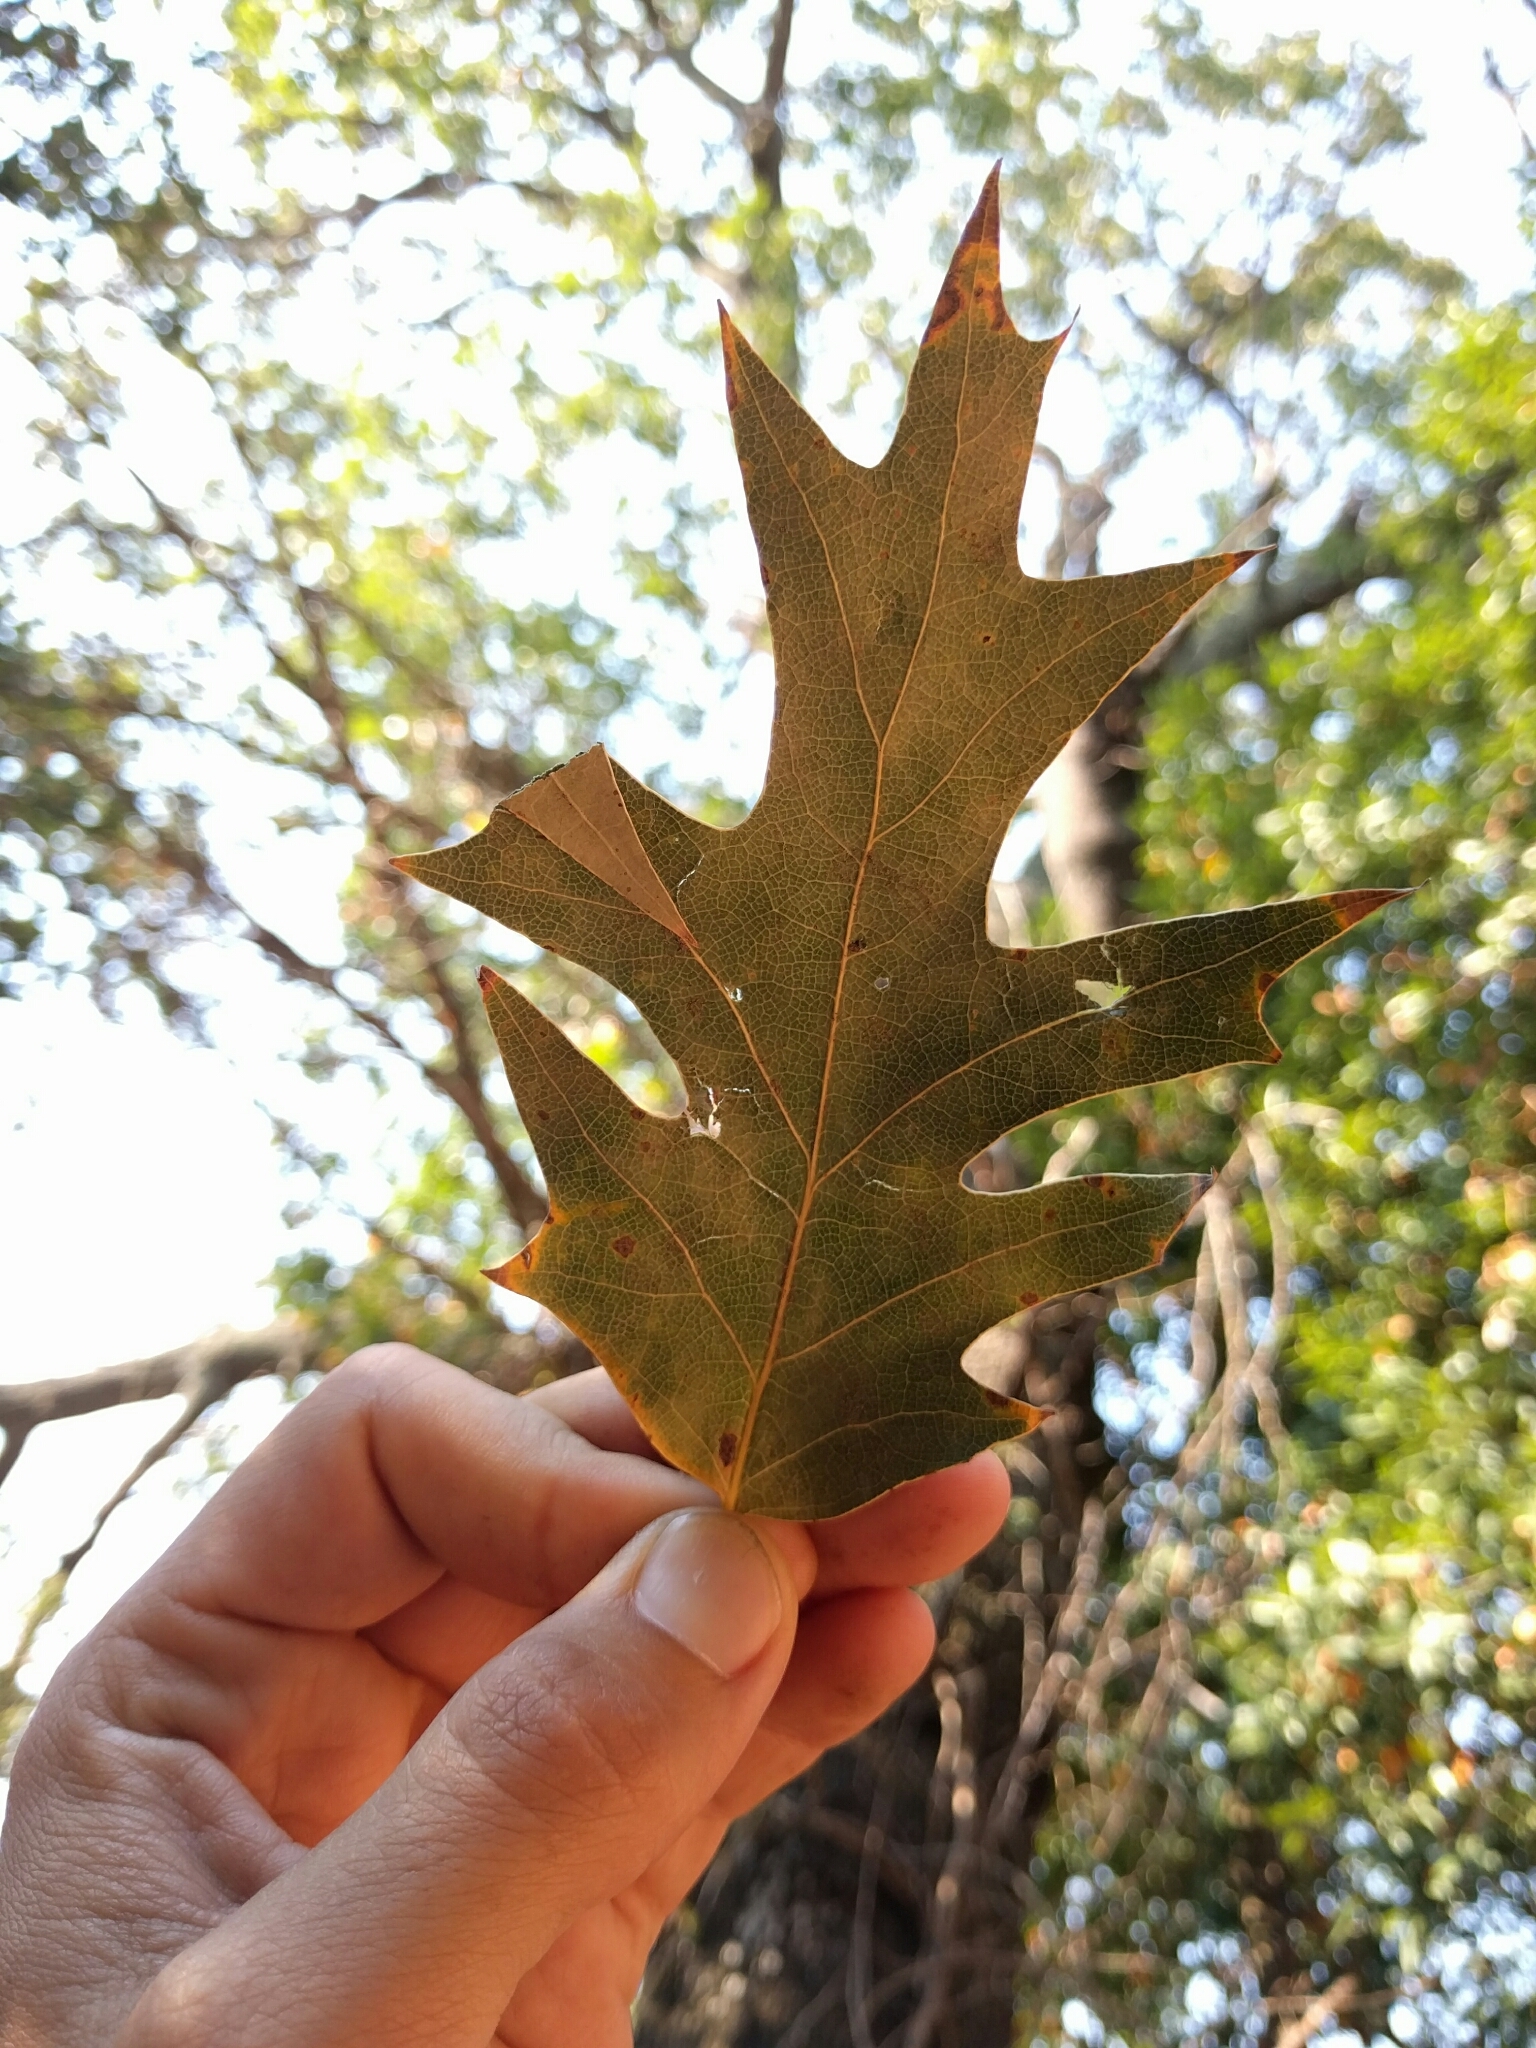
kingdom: Plantae
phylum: Tracheophyta
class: Magnoliopsida
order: Fagales
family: Fagaceae
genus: Quercus
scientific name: Quercus kelloggii
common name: California black oak
